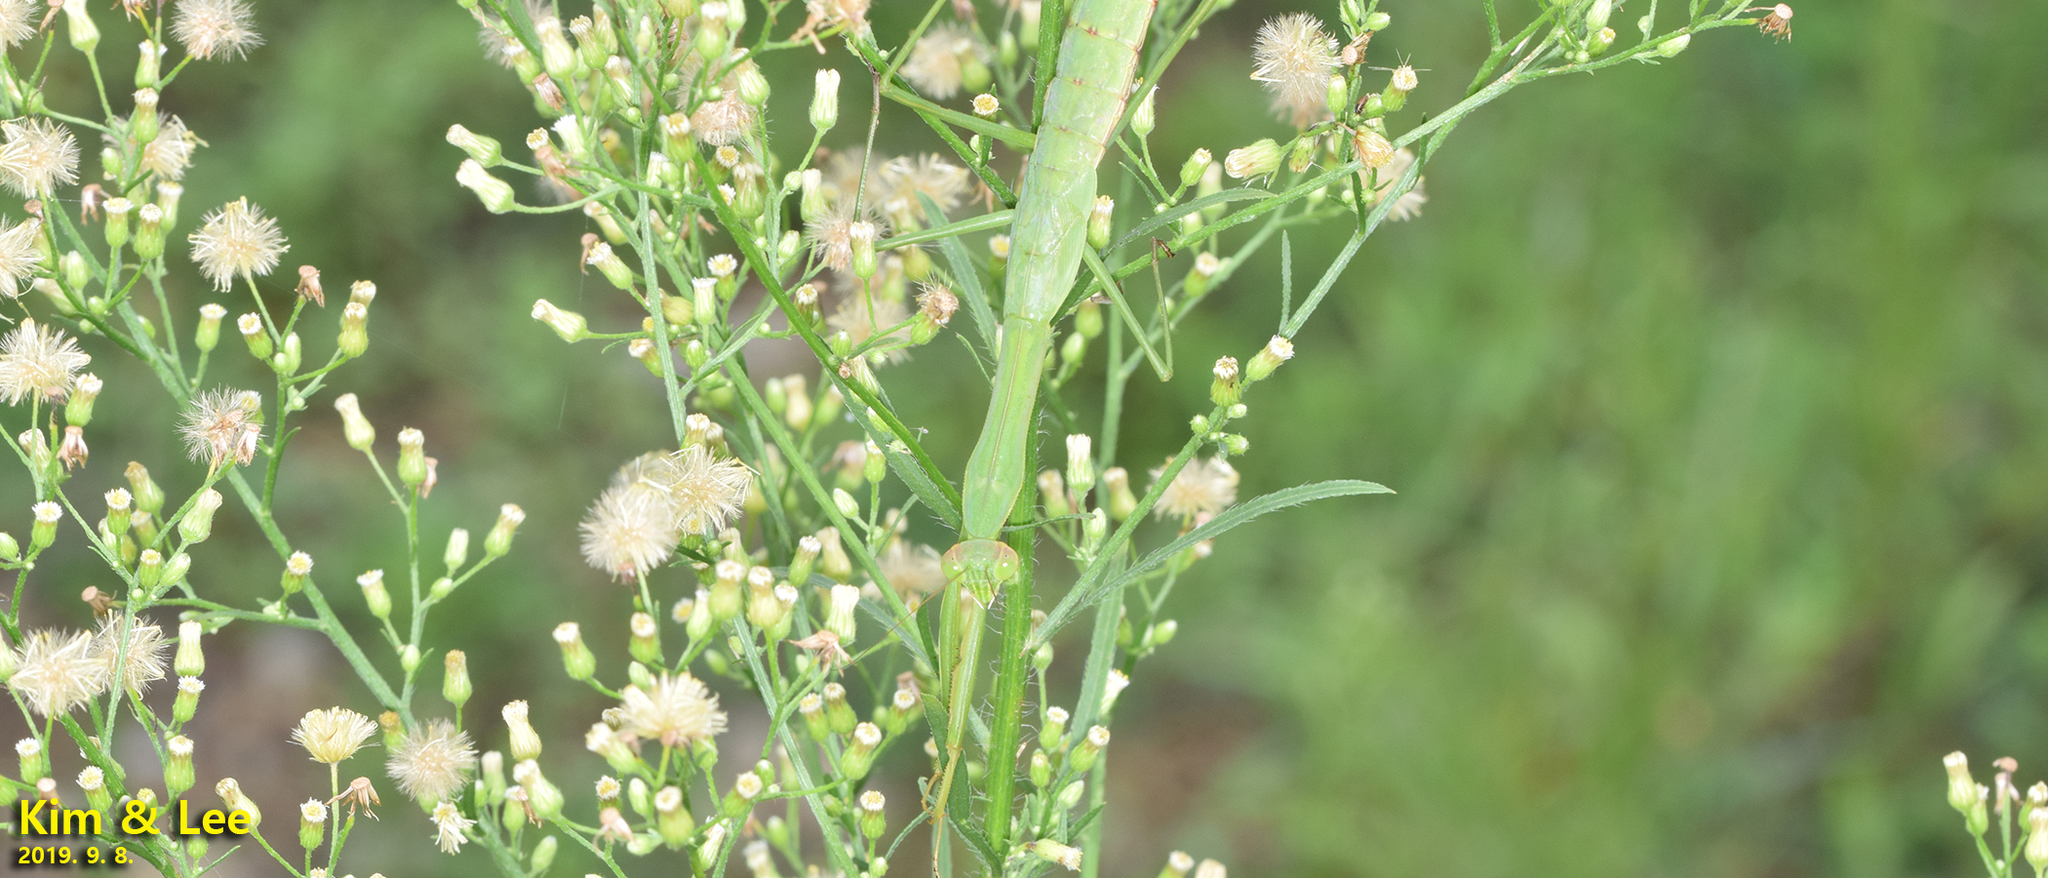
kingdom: Animalia
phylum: Arthropoda
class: Insecta
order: Mantodea
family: Mantidae
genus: Tenodera
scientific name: Tenodera angustipennis
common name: Asian mantis
